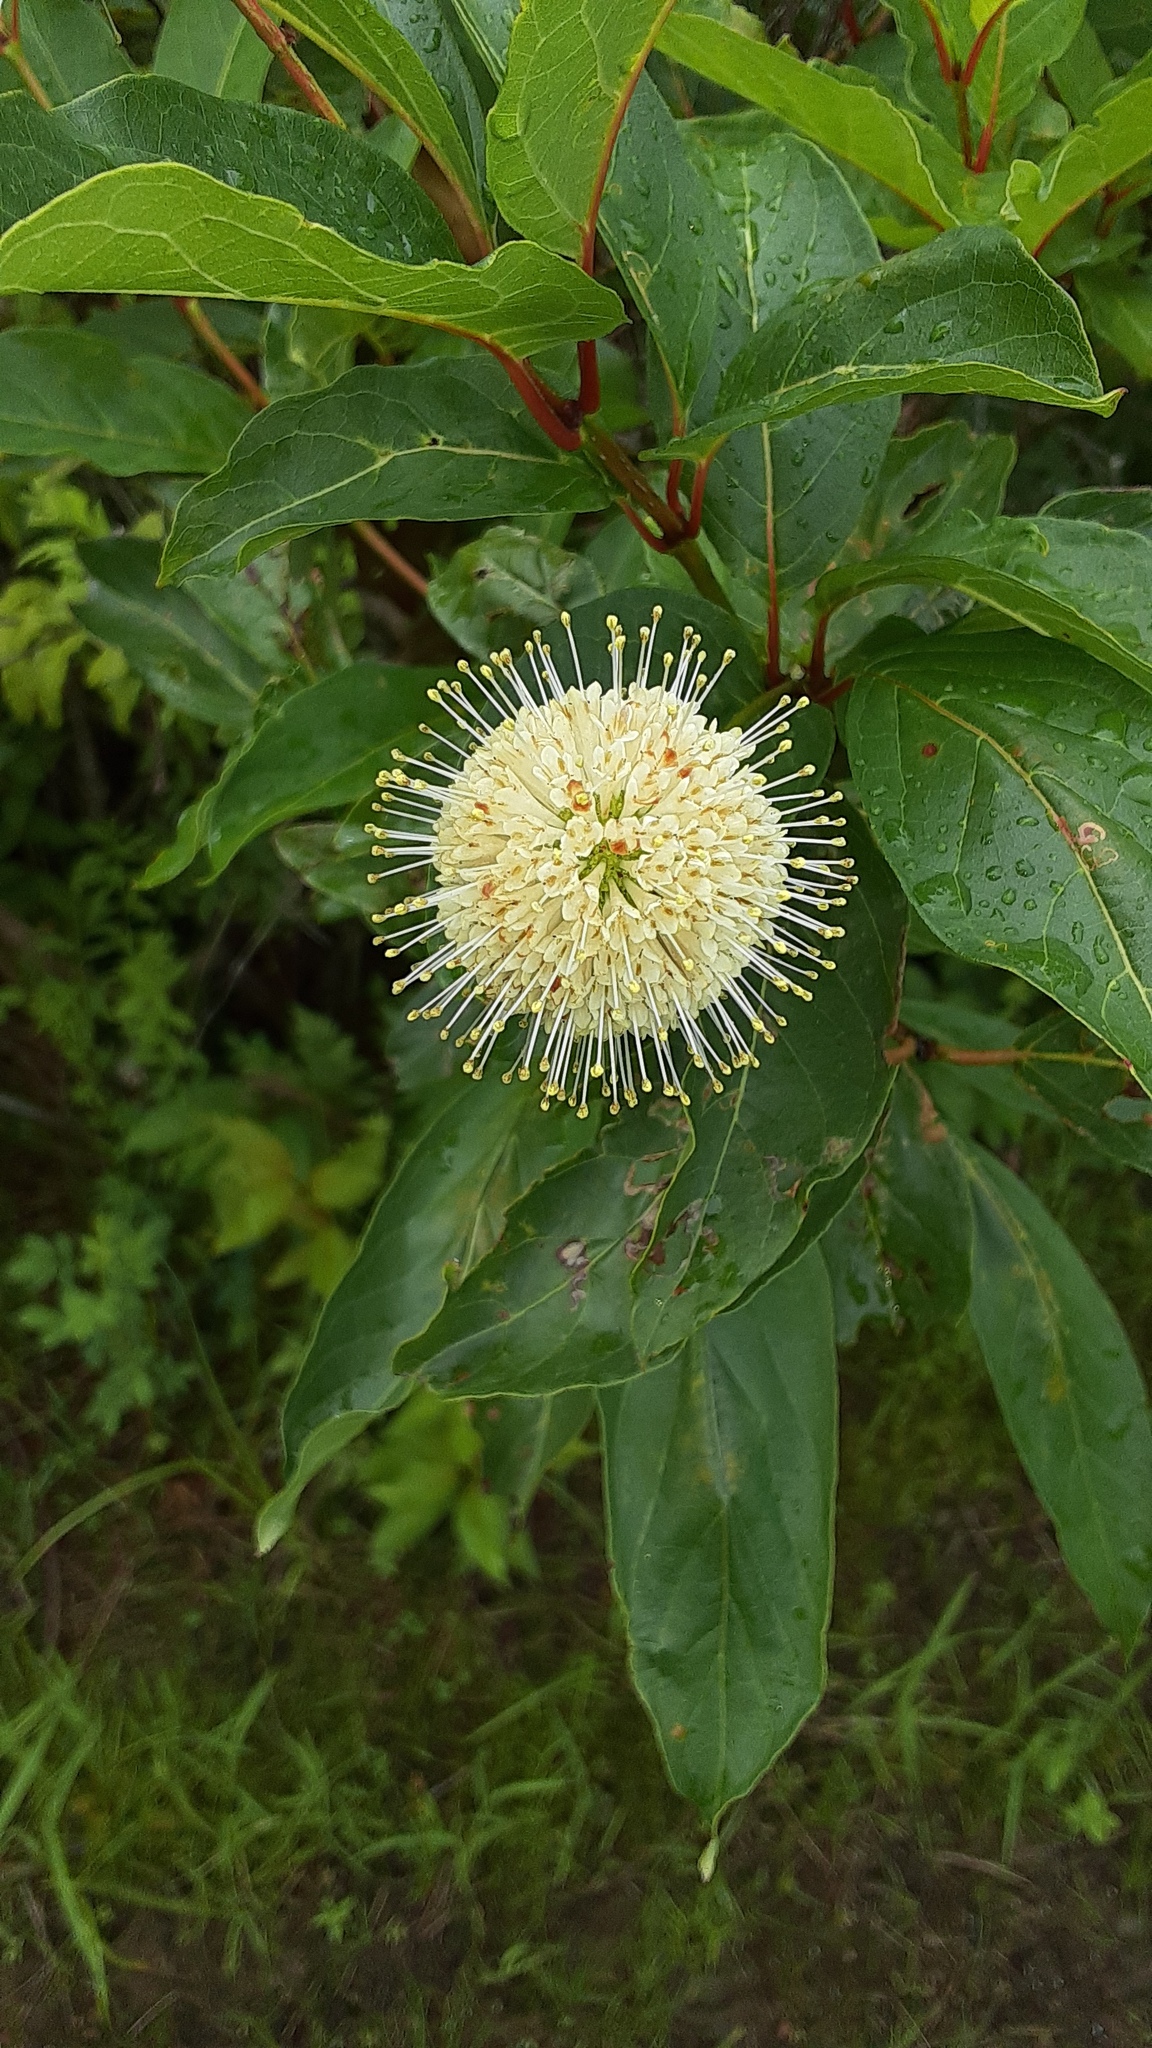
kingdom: Plantae
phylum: Tracheophyta
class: Magnoliopsida
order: Gentianales
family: Rubiaceae
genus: Cephalanthus
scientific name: Cephalanthus occidentalis
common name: Button-willow
